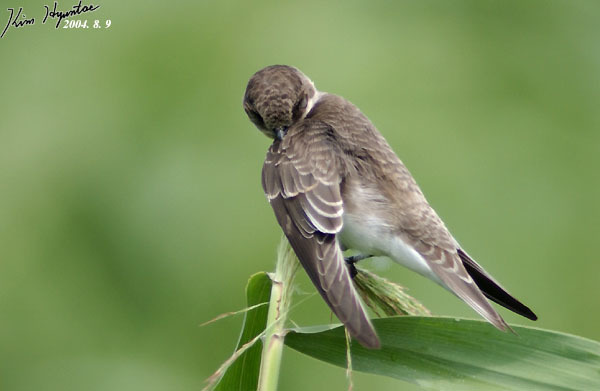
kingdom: Animalia
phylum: Chordata
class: Aves
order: Passeriformes
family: Hirundinidae
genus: Riparia
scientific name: Riparia riparia
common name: Sand martin
